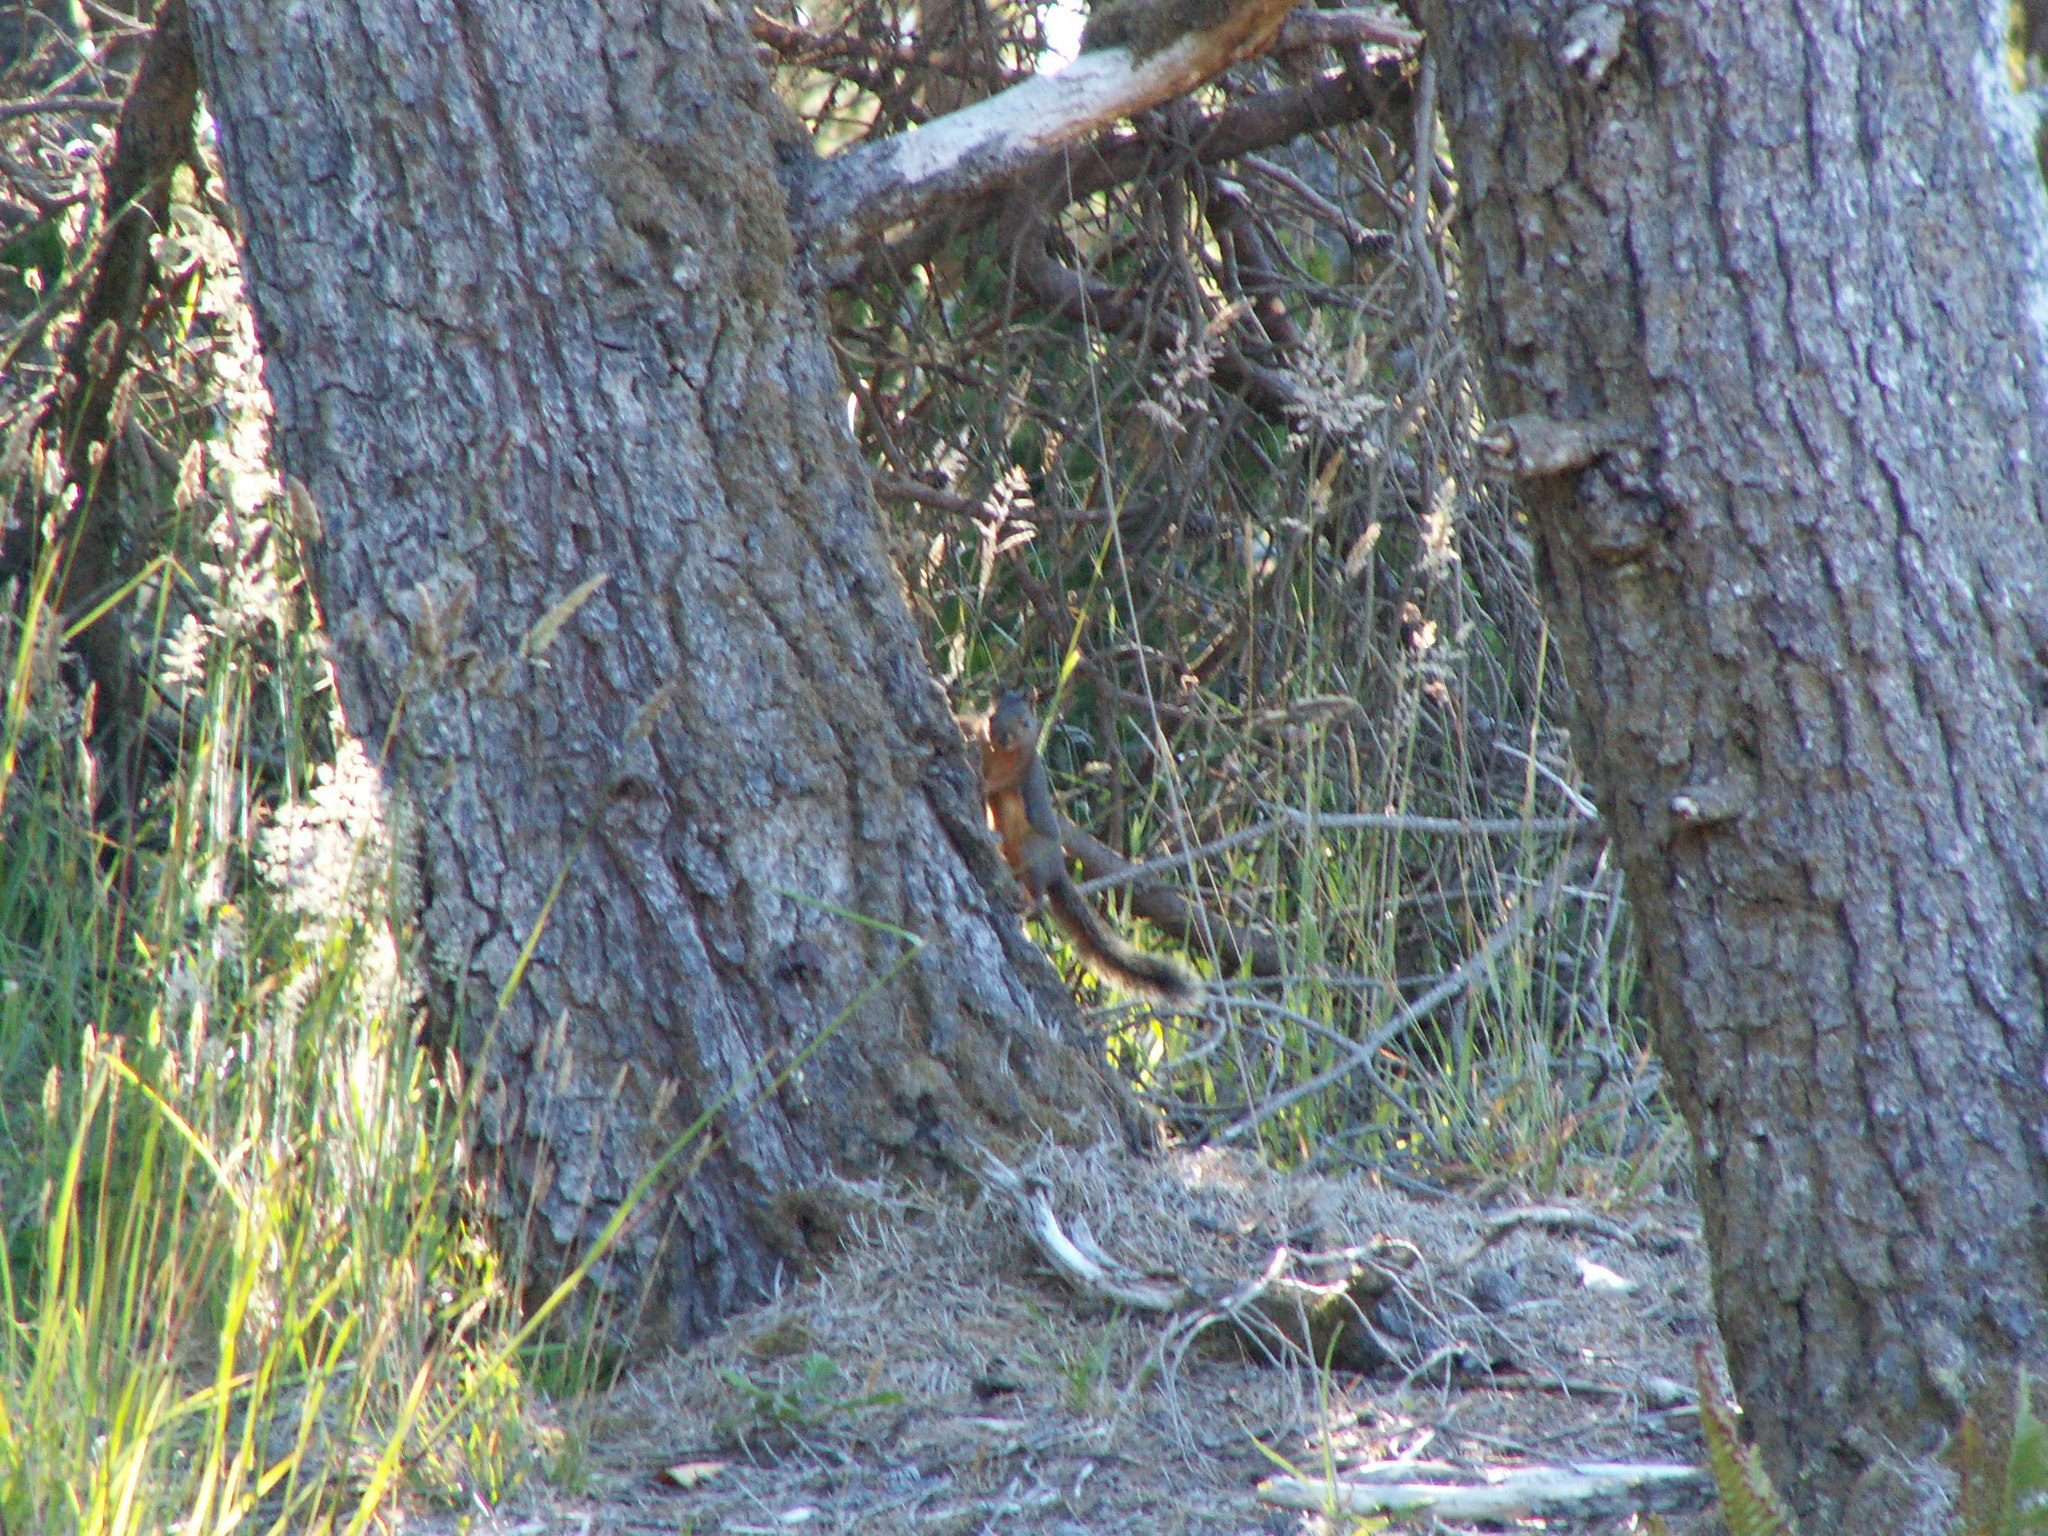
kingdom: Animalia
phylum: Chordata
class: Mammalia
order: Rodentia
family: Sciuridae
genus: Tamiasciurus
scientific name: Tamiasciurus douglasii
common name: Douglas's squirrel
